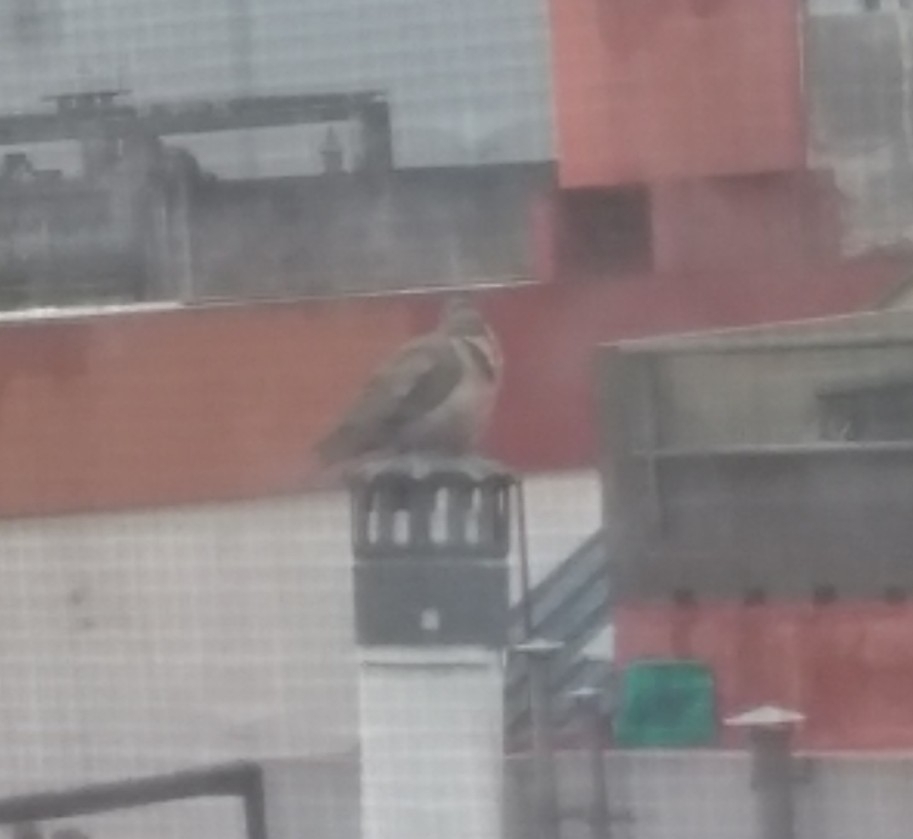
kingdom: Animalia
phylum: Chordata
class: Aves
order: Columbiformes
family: Columbidae
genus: Zenaida
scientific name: Zenaida auriculata
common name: Eared dove
